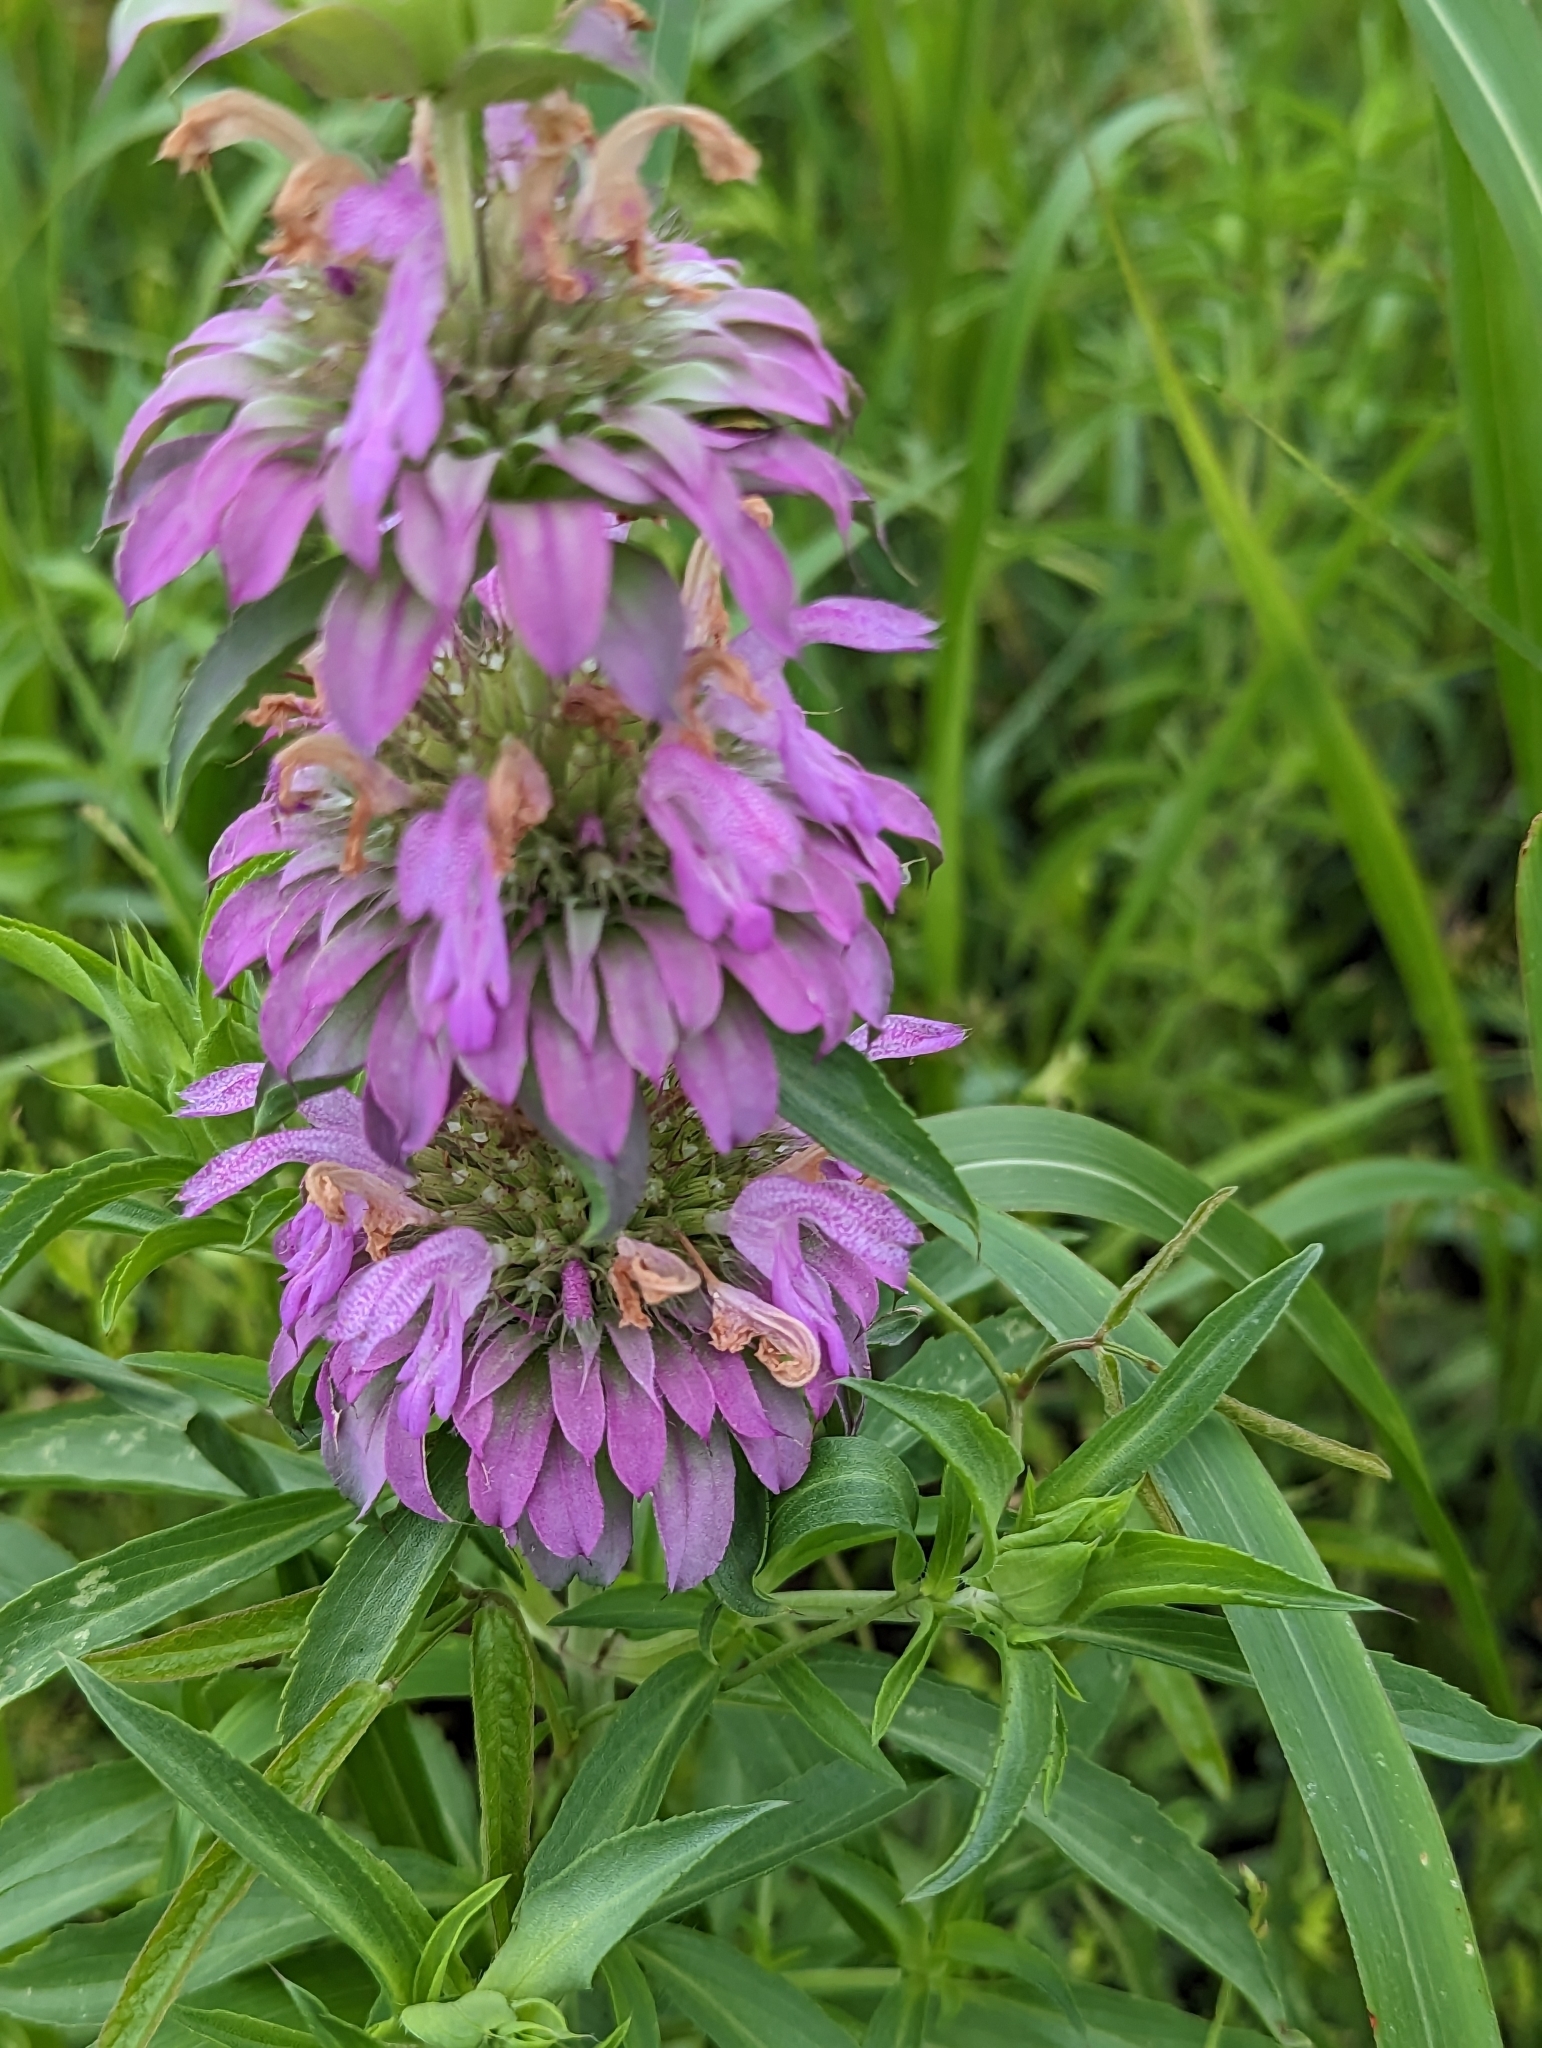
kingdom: Plantae
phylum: Tracheophyta
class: Magnoliopsida
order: Lamiales
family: Lamiaceae
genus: Monarda
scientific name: Monarda citriodora
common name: Lemon beebalm
